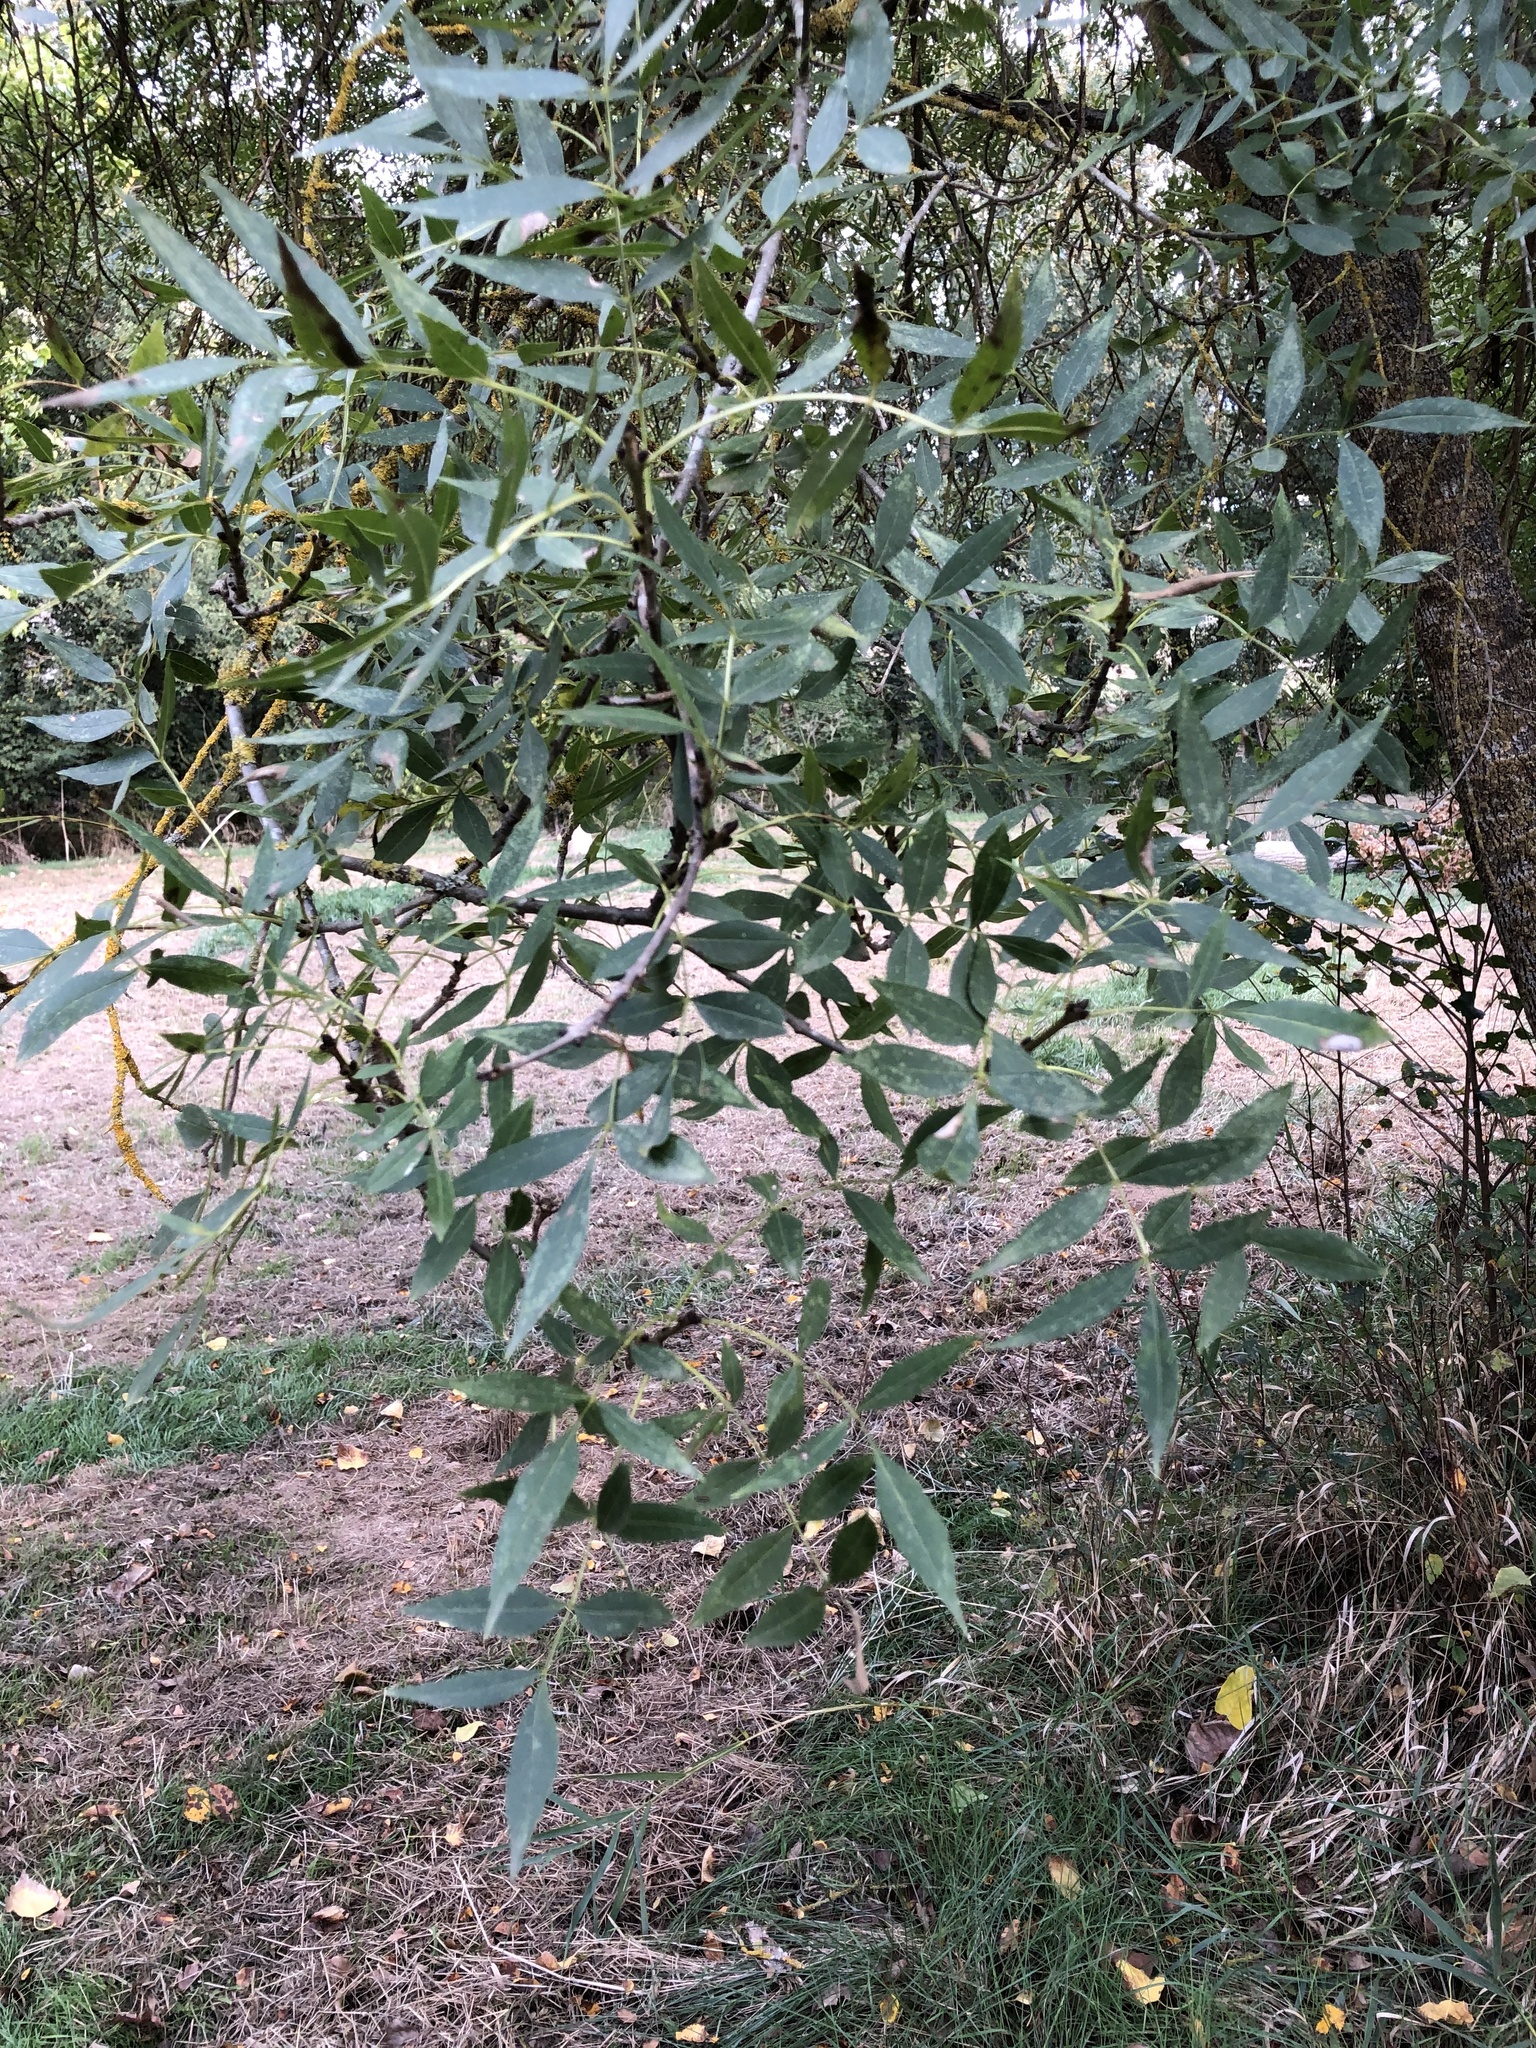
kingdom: Plantae
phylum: Tracheophyta
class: Magnoliopsida
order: Lamiales
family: Oleaceae
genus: Fraxinus
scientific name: Fraxinus angustifolia
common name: Narrow-leafed ash
